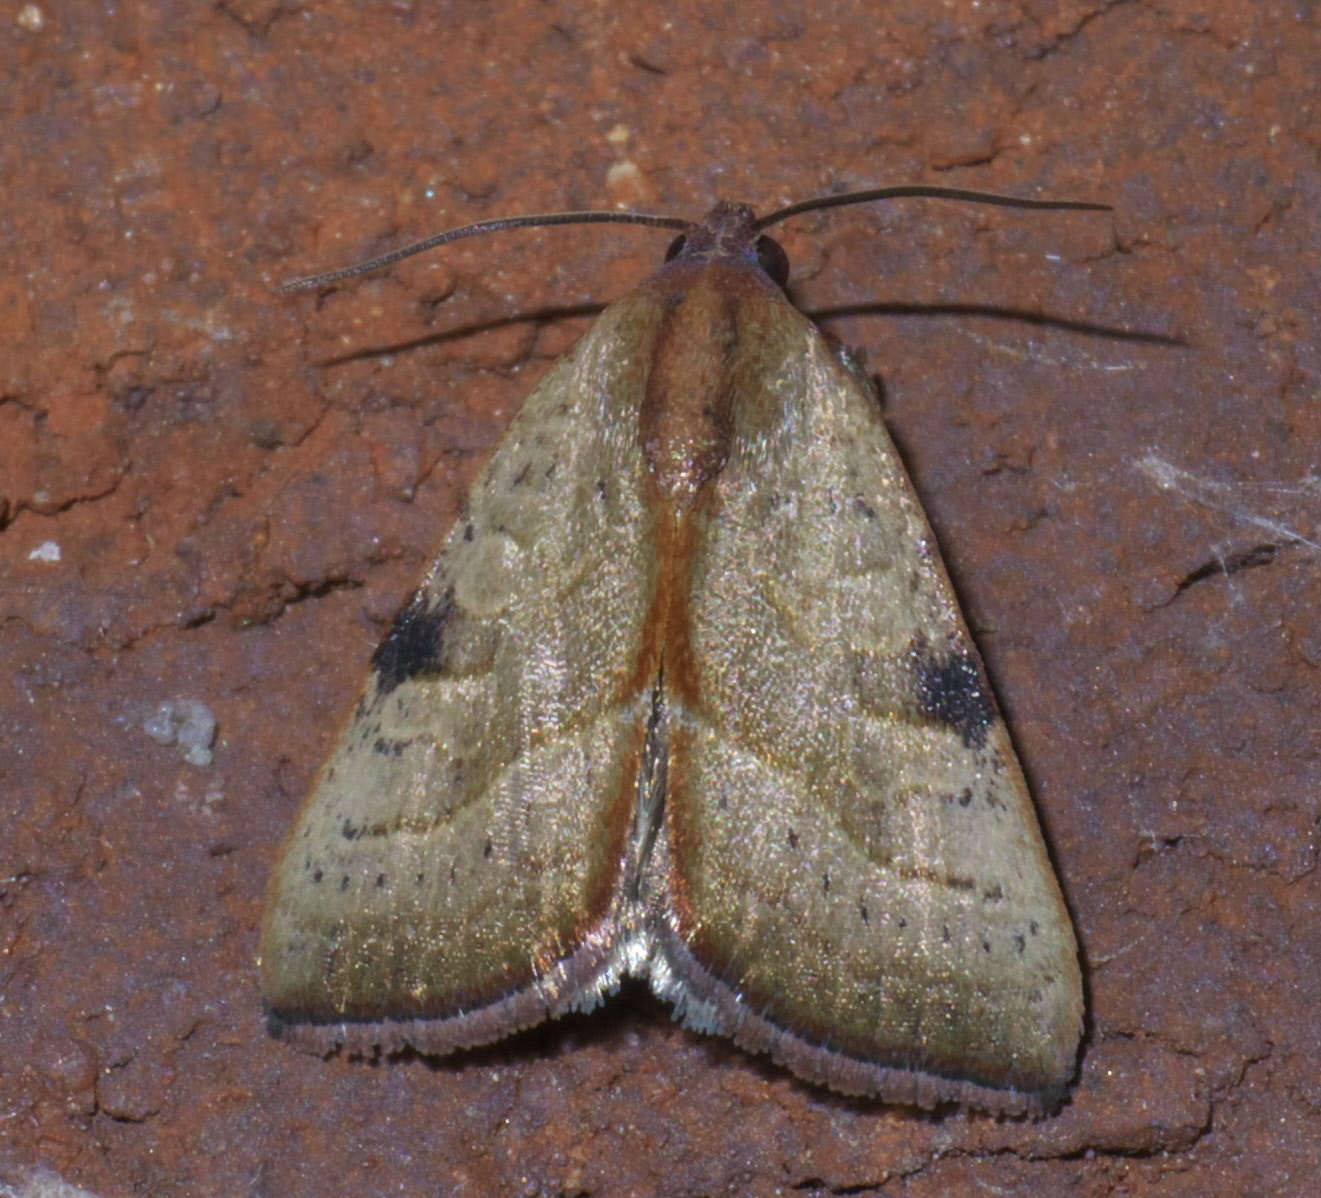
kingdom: Animalia
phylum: Arthropoda
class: Insecta
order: Lepidoptera
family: Noctuidae
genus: Galgula
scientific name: Galgula partita
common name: Wedgeling
